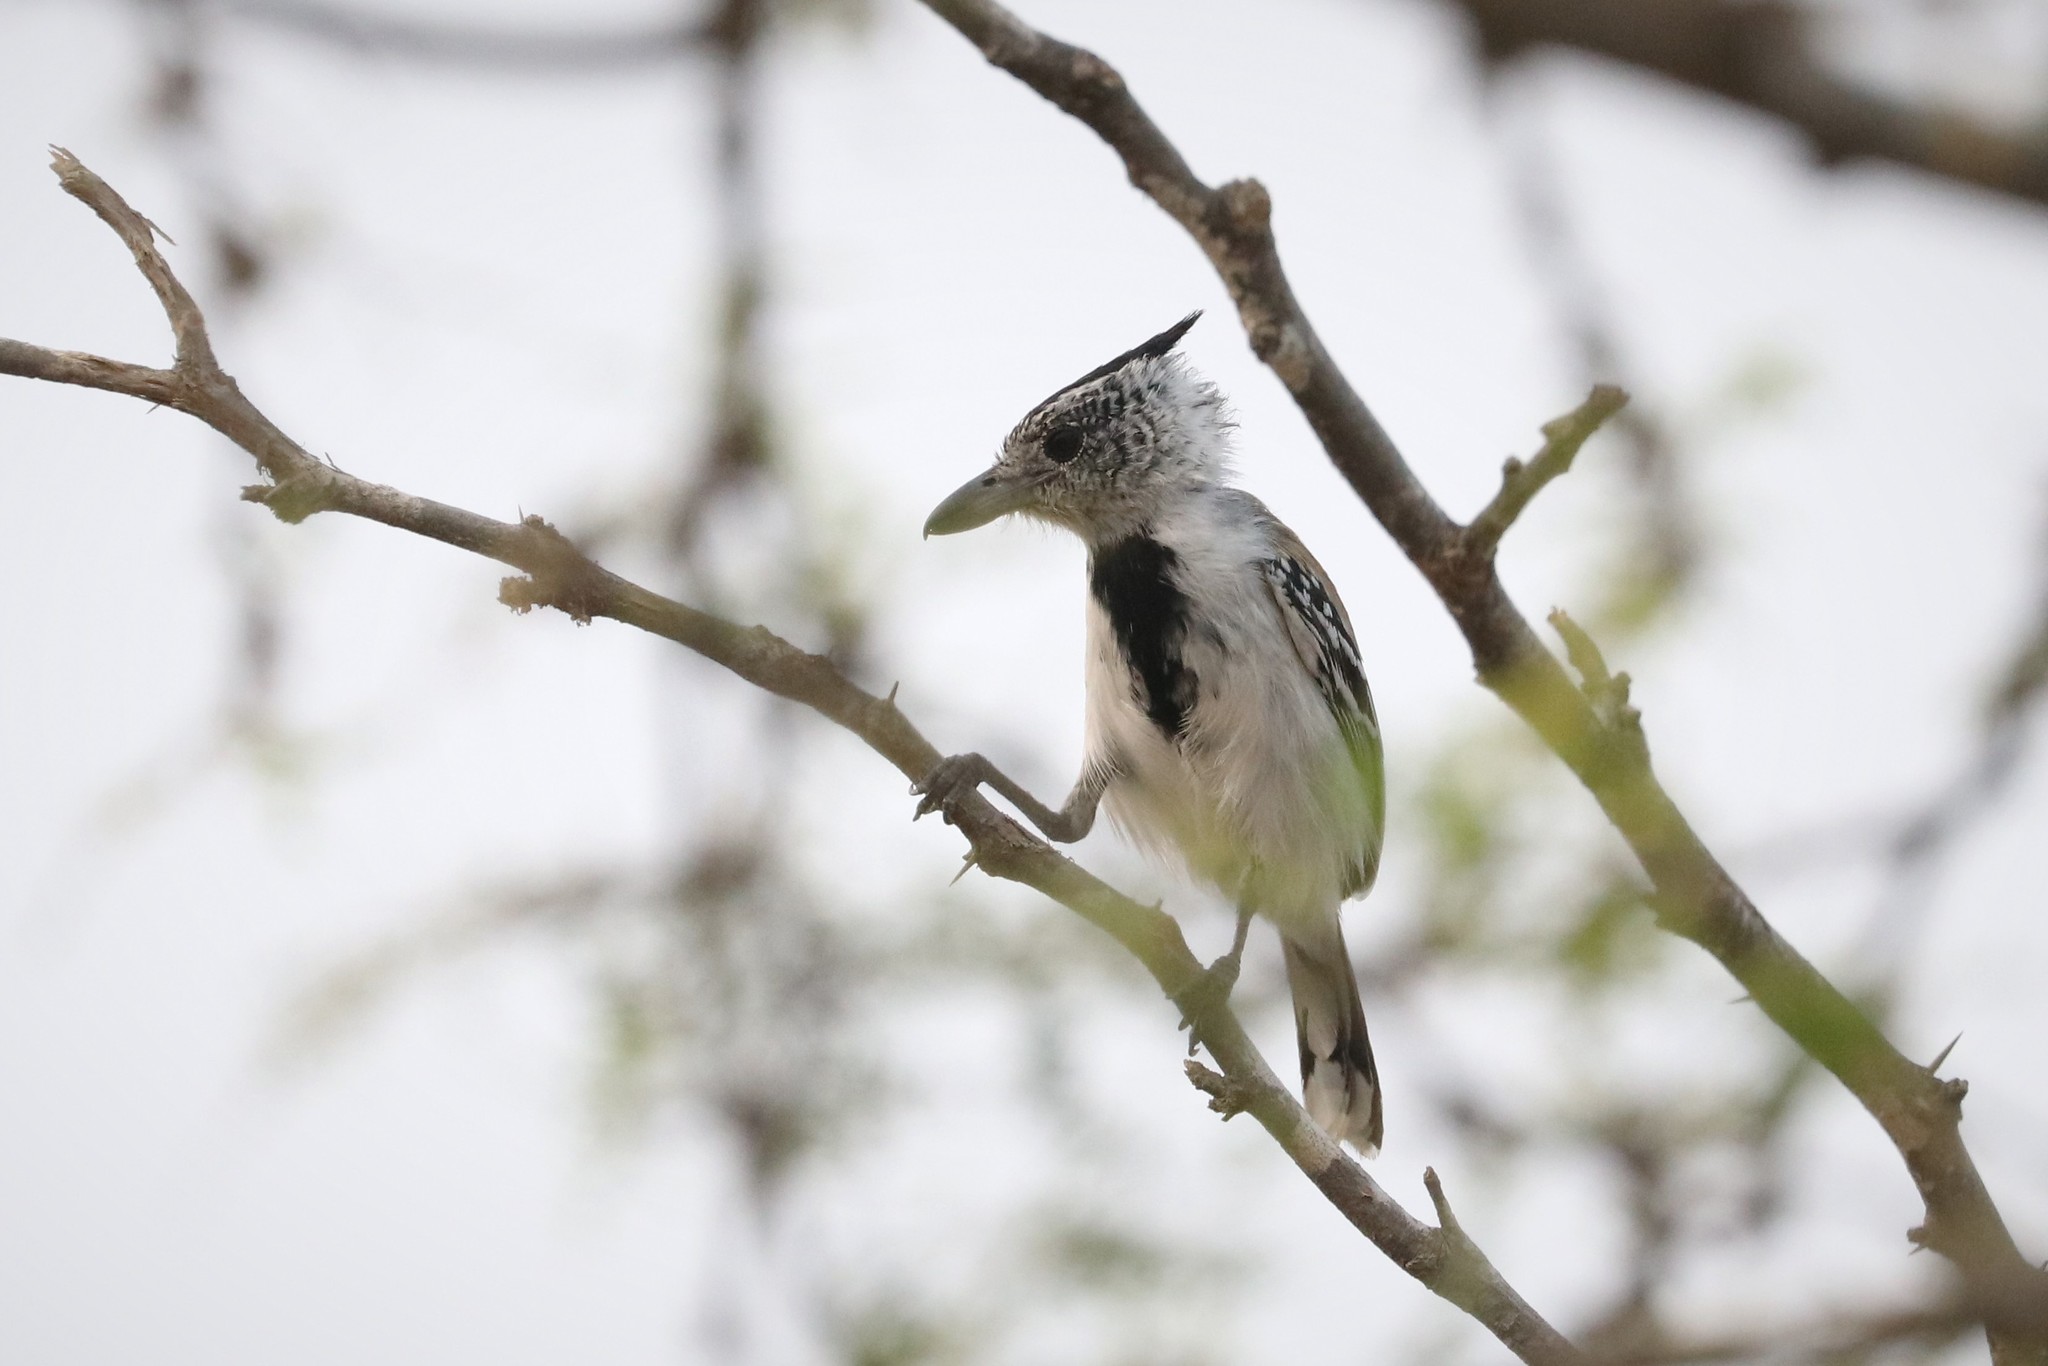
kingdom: Animalia
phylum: Chordata
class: Aves
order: Passeriformes
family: Thamnophilidae
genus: Sakesphorus
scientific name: Sakesphorus canadensis
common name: Black-crested antshrike
